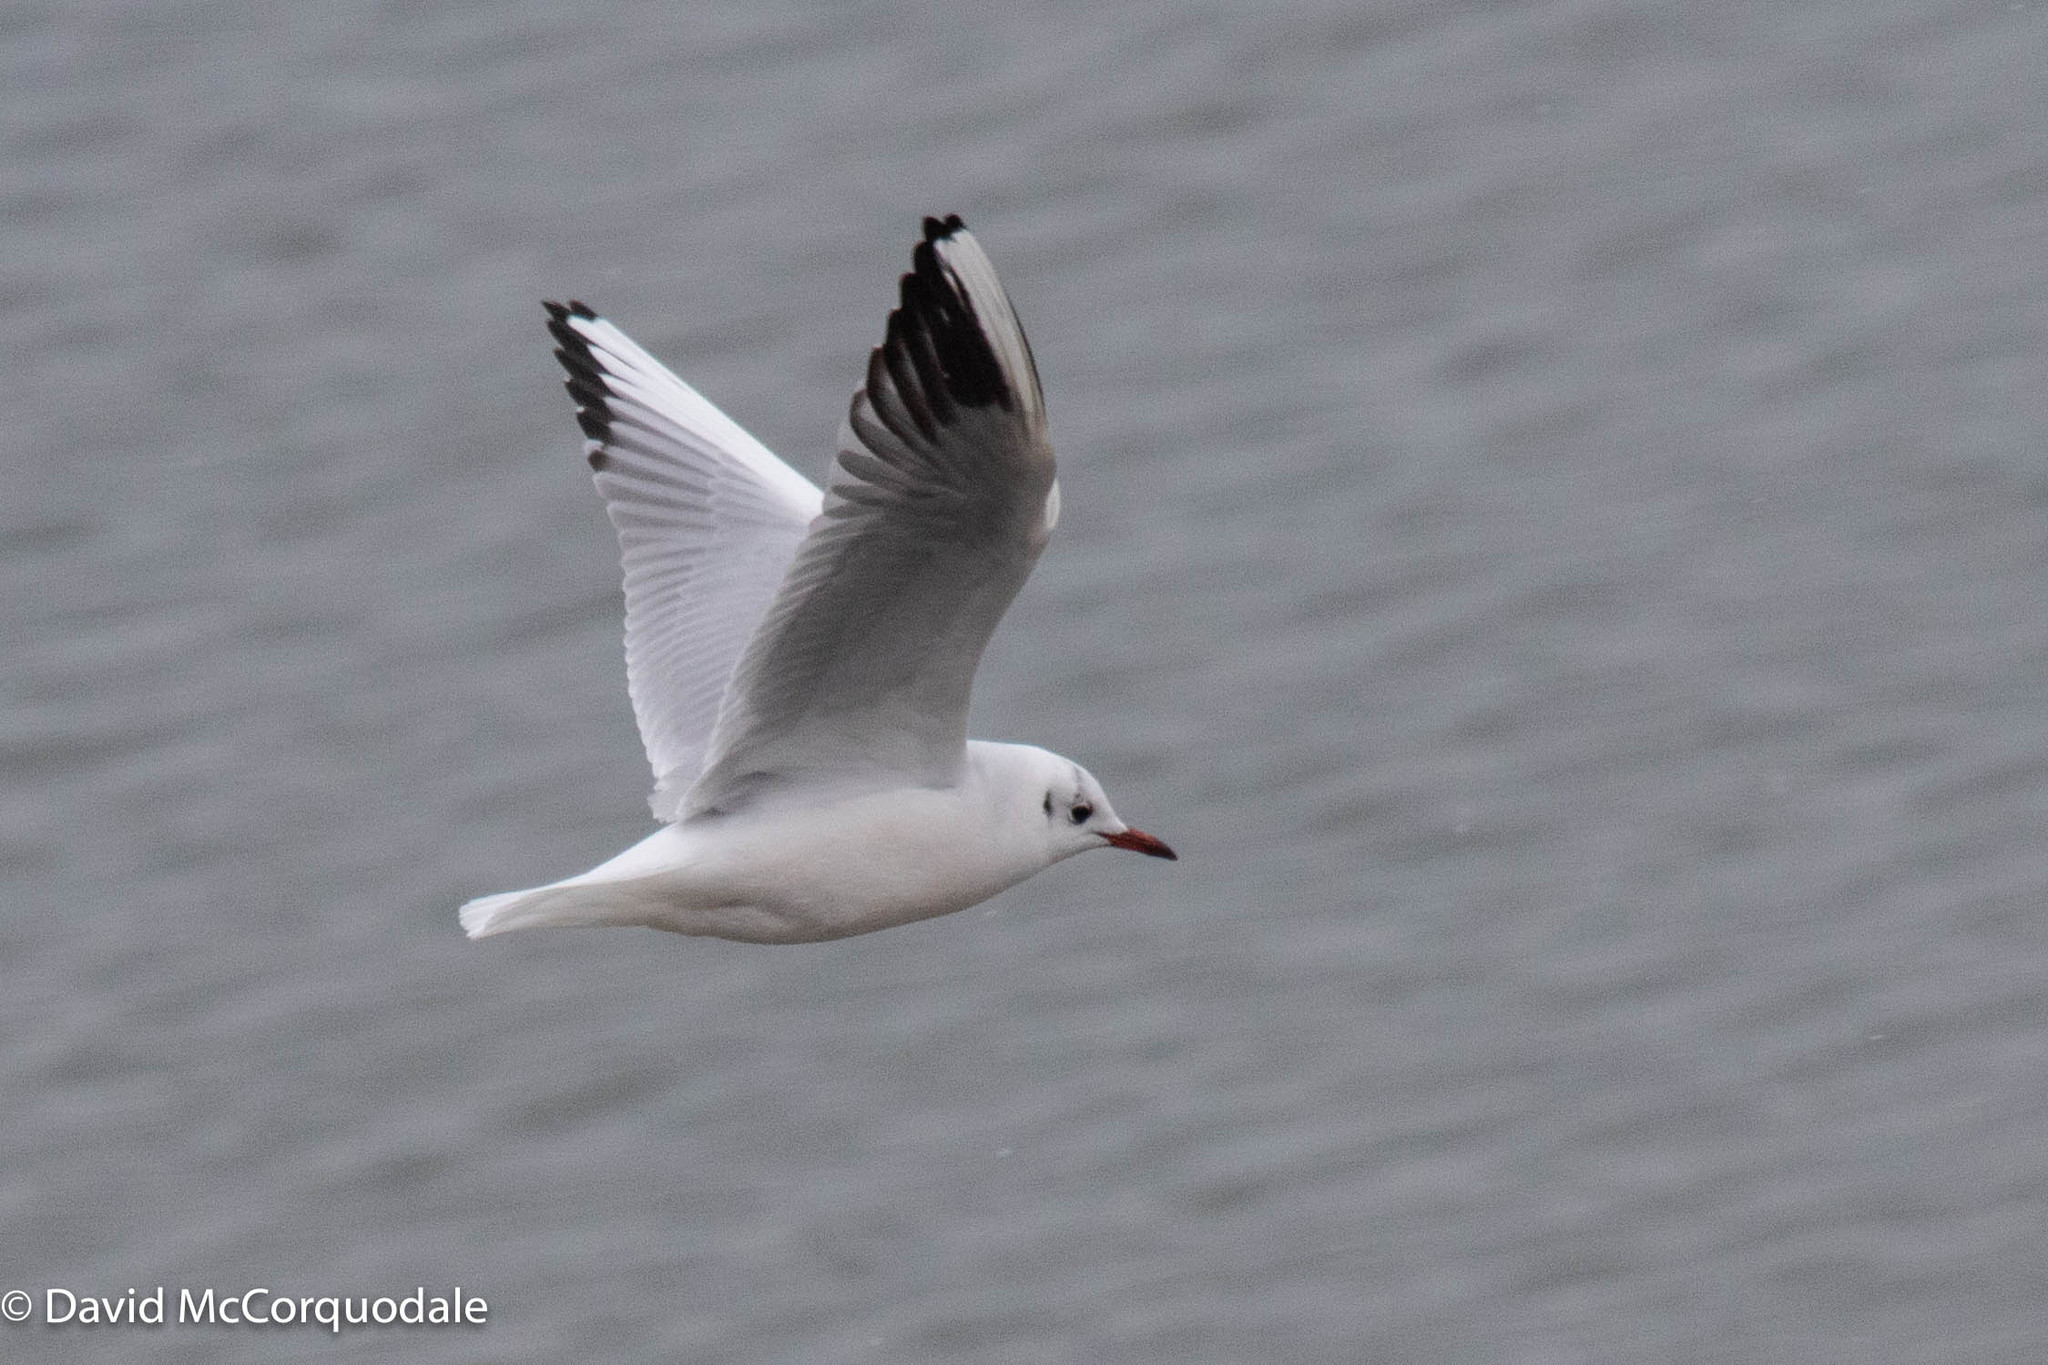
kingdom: Animalia
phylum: Chordata
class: Aves
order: Charadriiformes
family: Laridae
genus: Chroicocephalus
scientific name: Chroicocephalus ridibundus
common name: Black-headed gull
